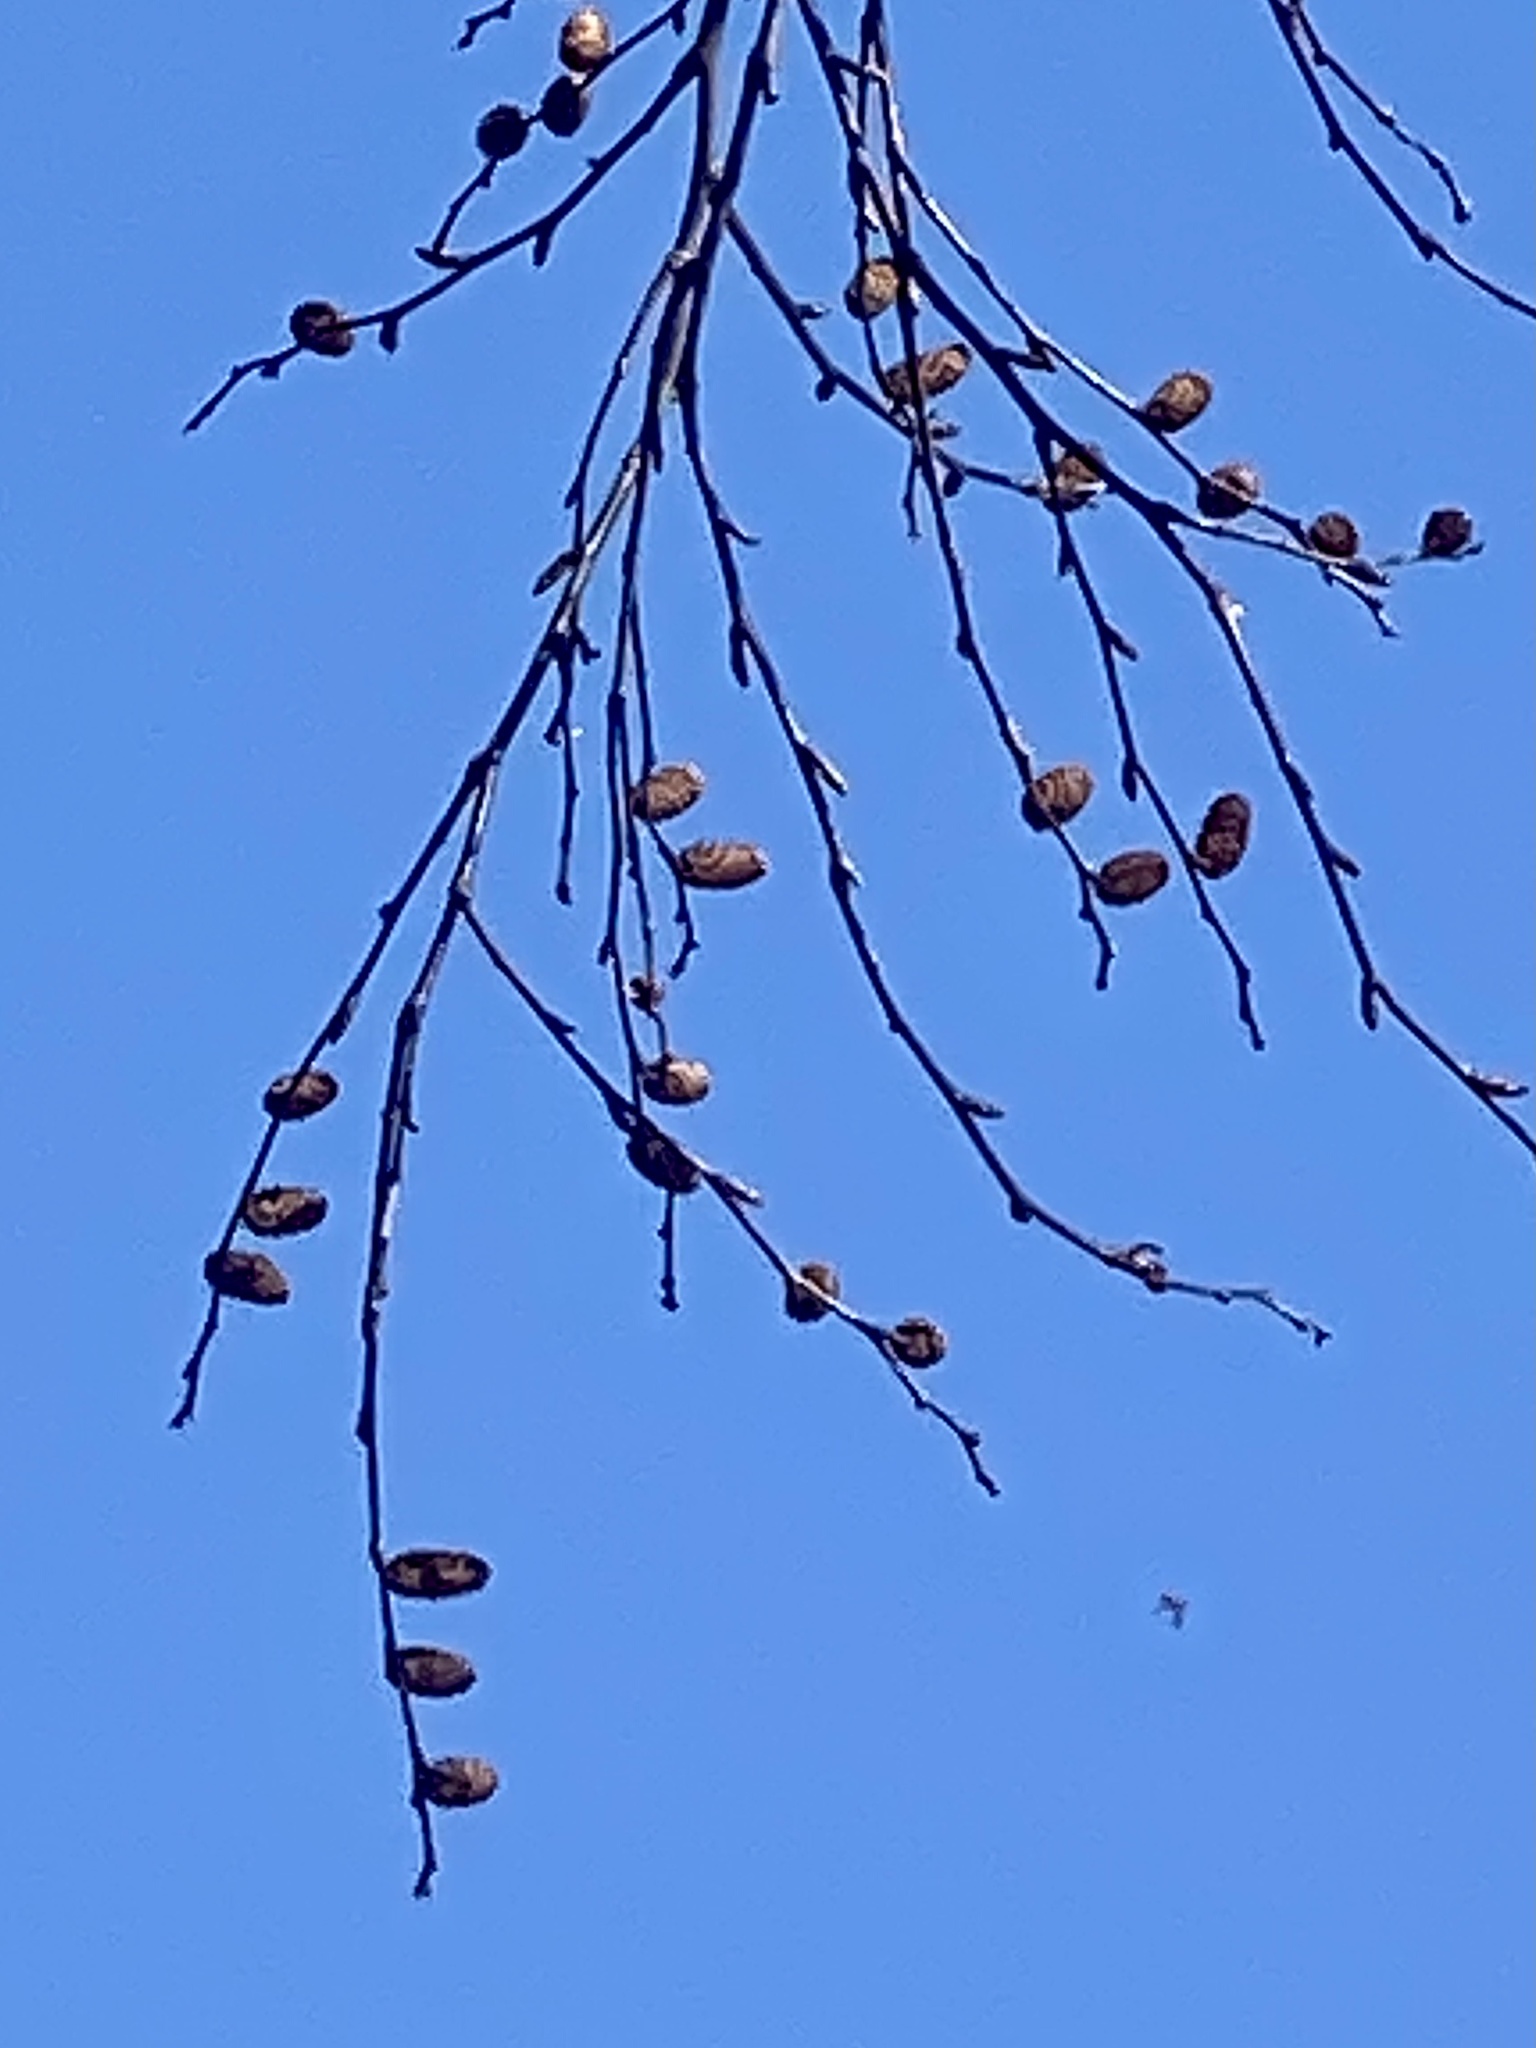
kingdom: Plantae
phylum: Tracheophyta
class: Magnoliopsida
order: Fagales
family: Betulaceae
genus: Betula
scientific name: Betula lenta
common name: Black birch
